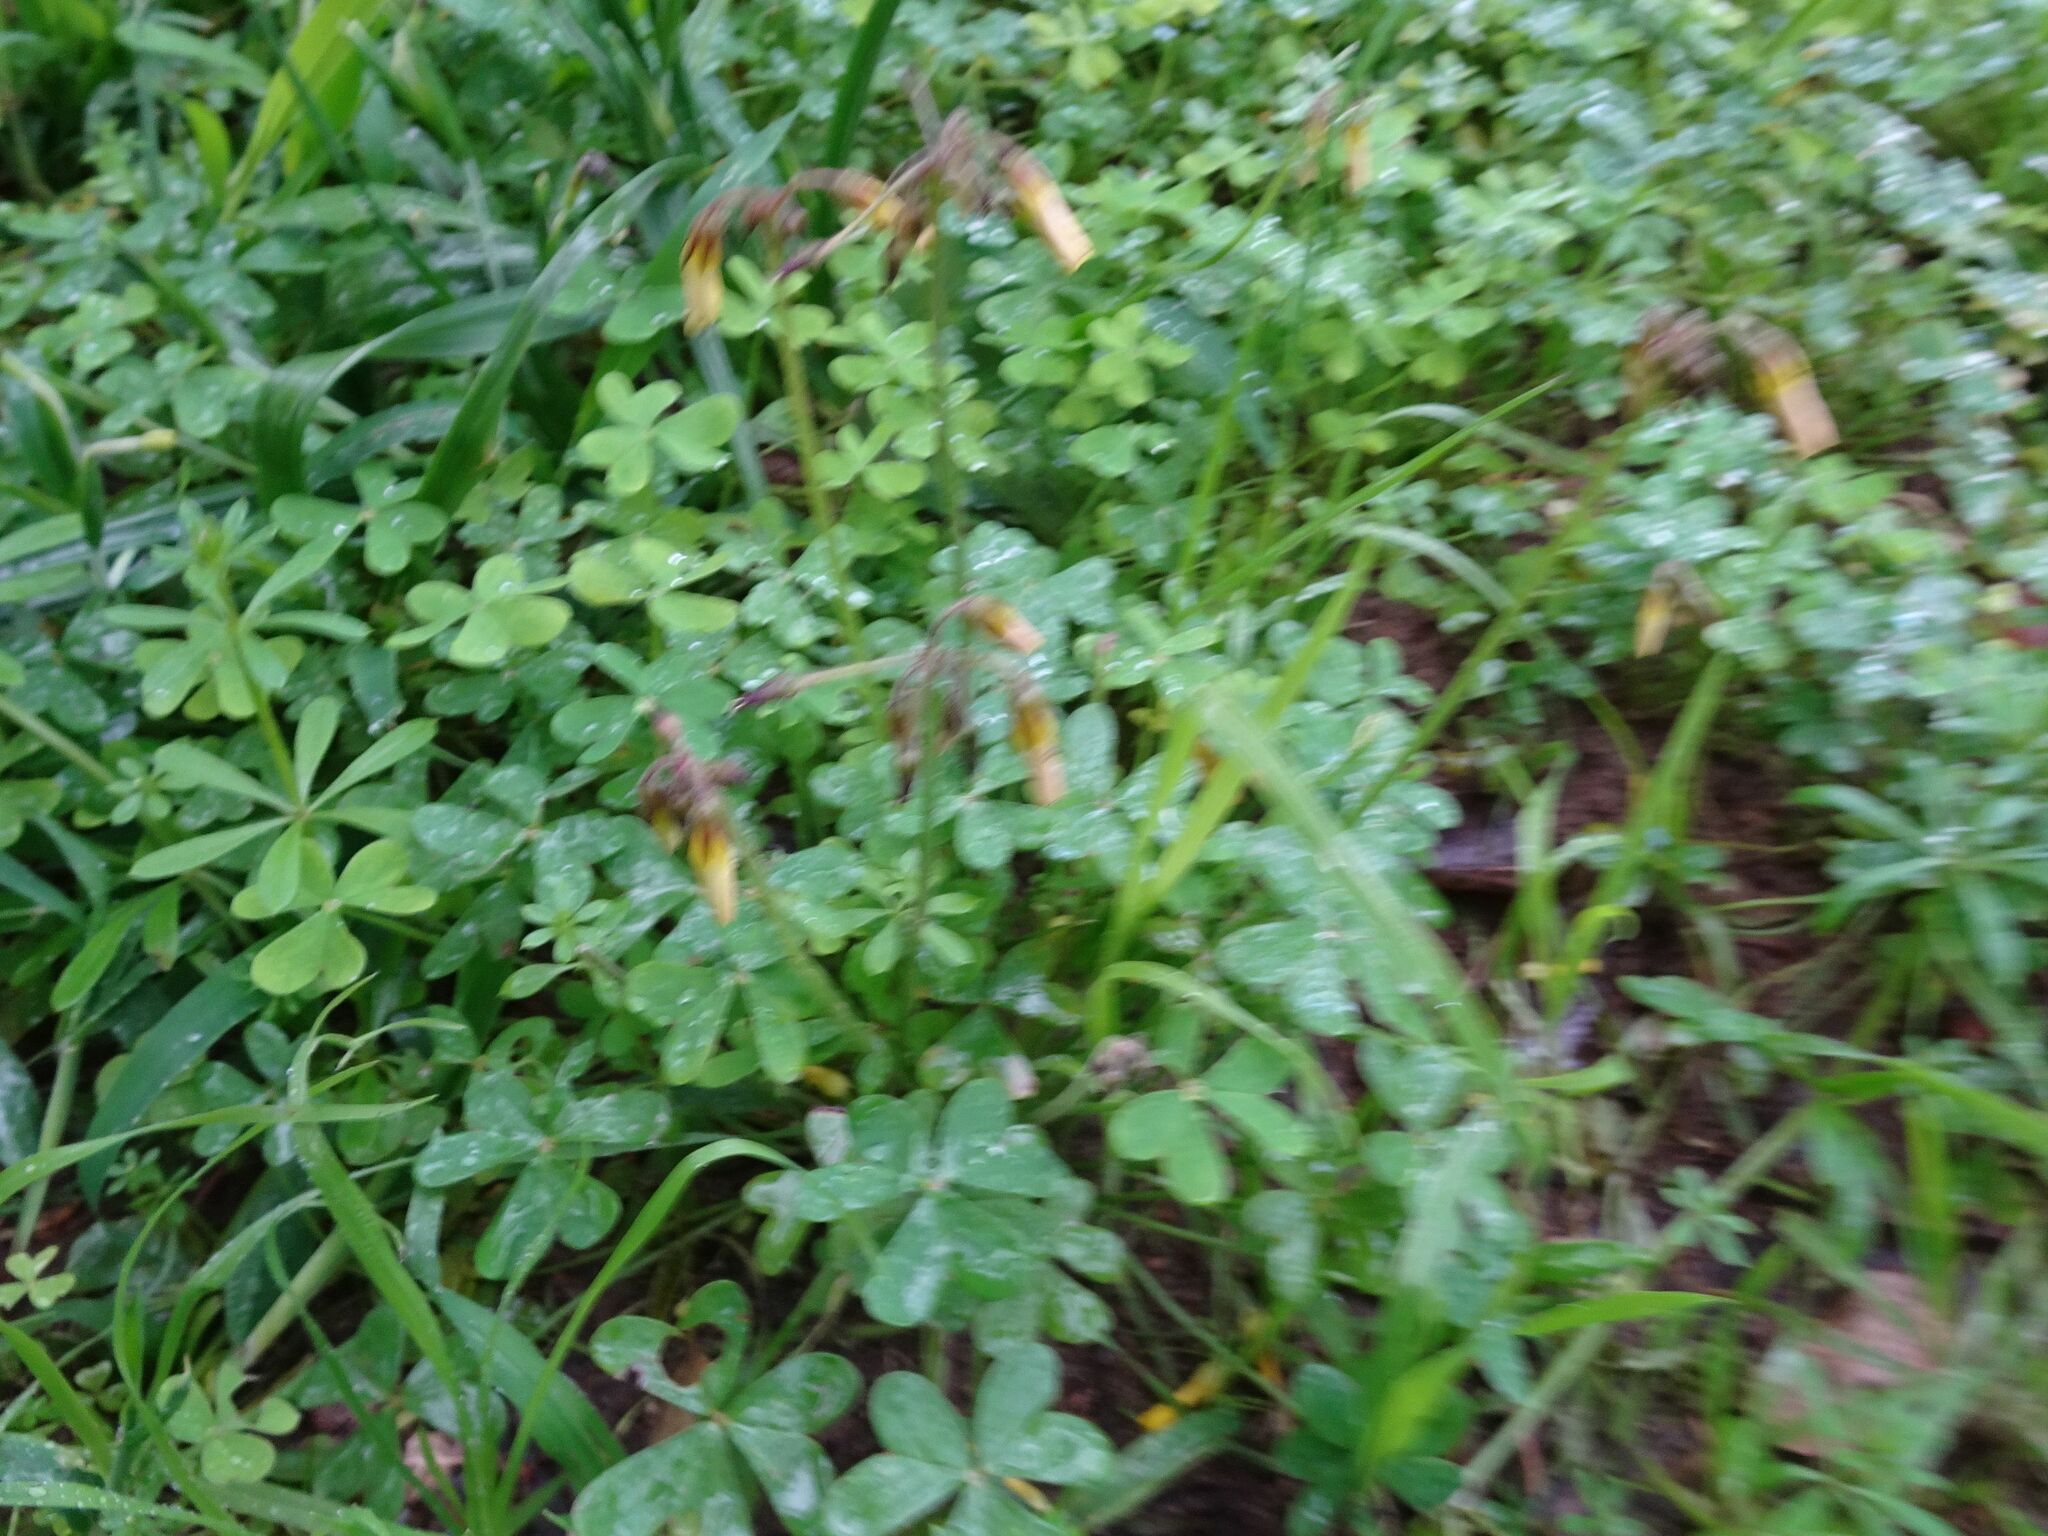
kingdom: Plantae
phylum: Tracheophyta
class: Magnoliopsida
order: Oxalidales
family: Oxalidaceae
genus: Oxalis
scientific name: Oxalis pes-caprae
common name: Bermuda-buttercup
